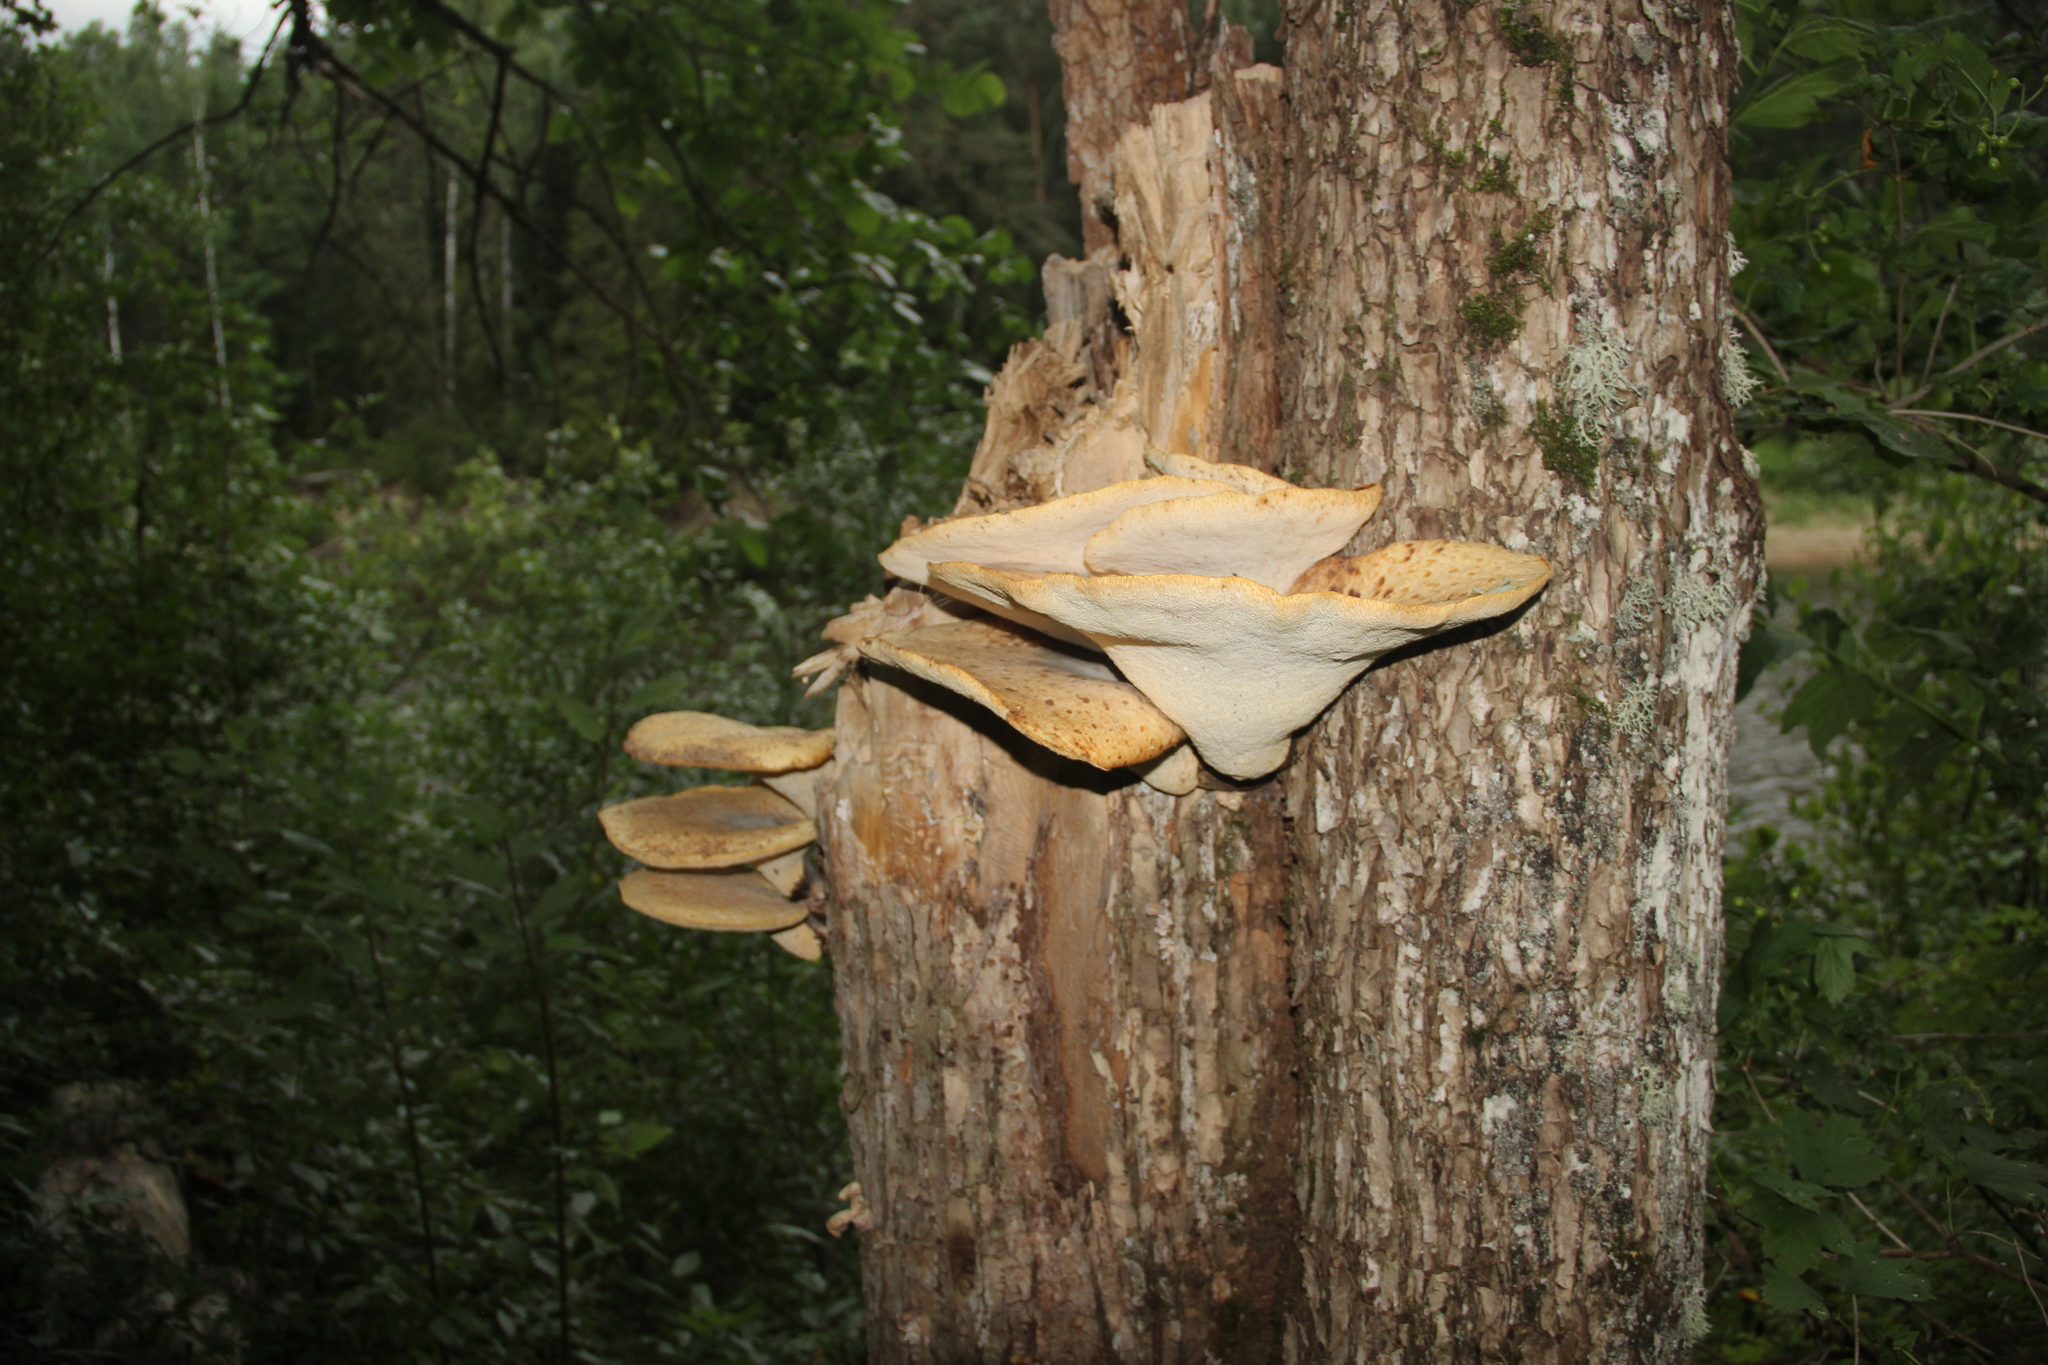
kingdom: Fungi
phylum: Basidiomycota
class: Agaricomycetes
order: Polyporales
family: Polyporaceae
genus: Cerioporus
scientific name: Cerioporus squamosus
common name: Dryad's saddle
